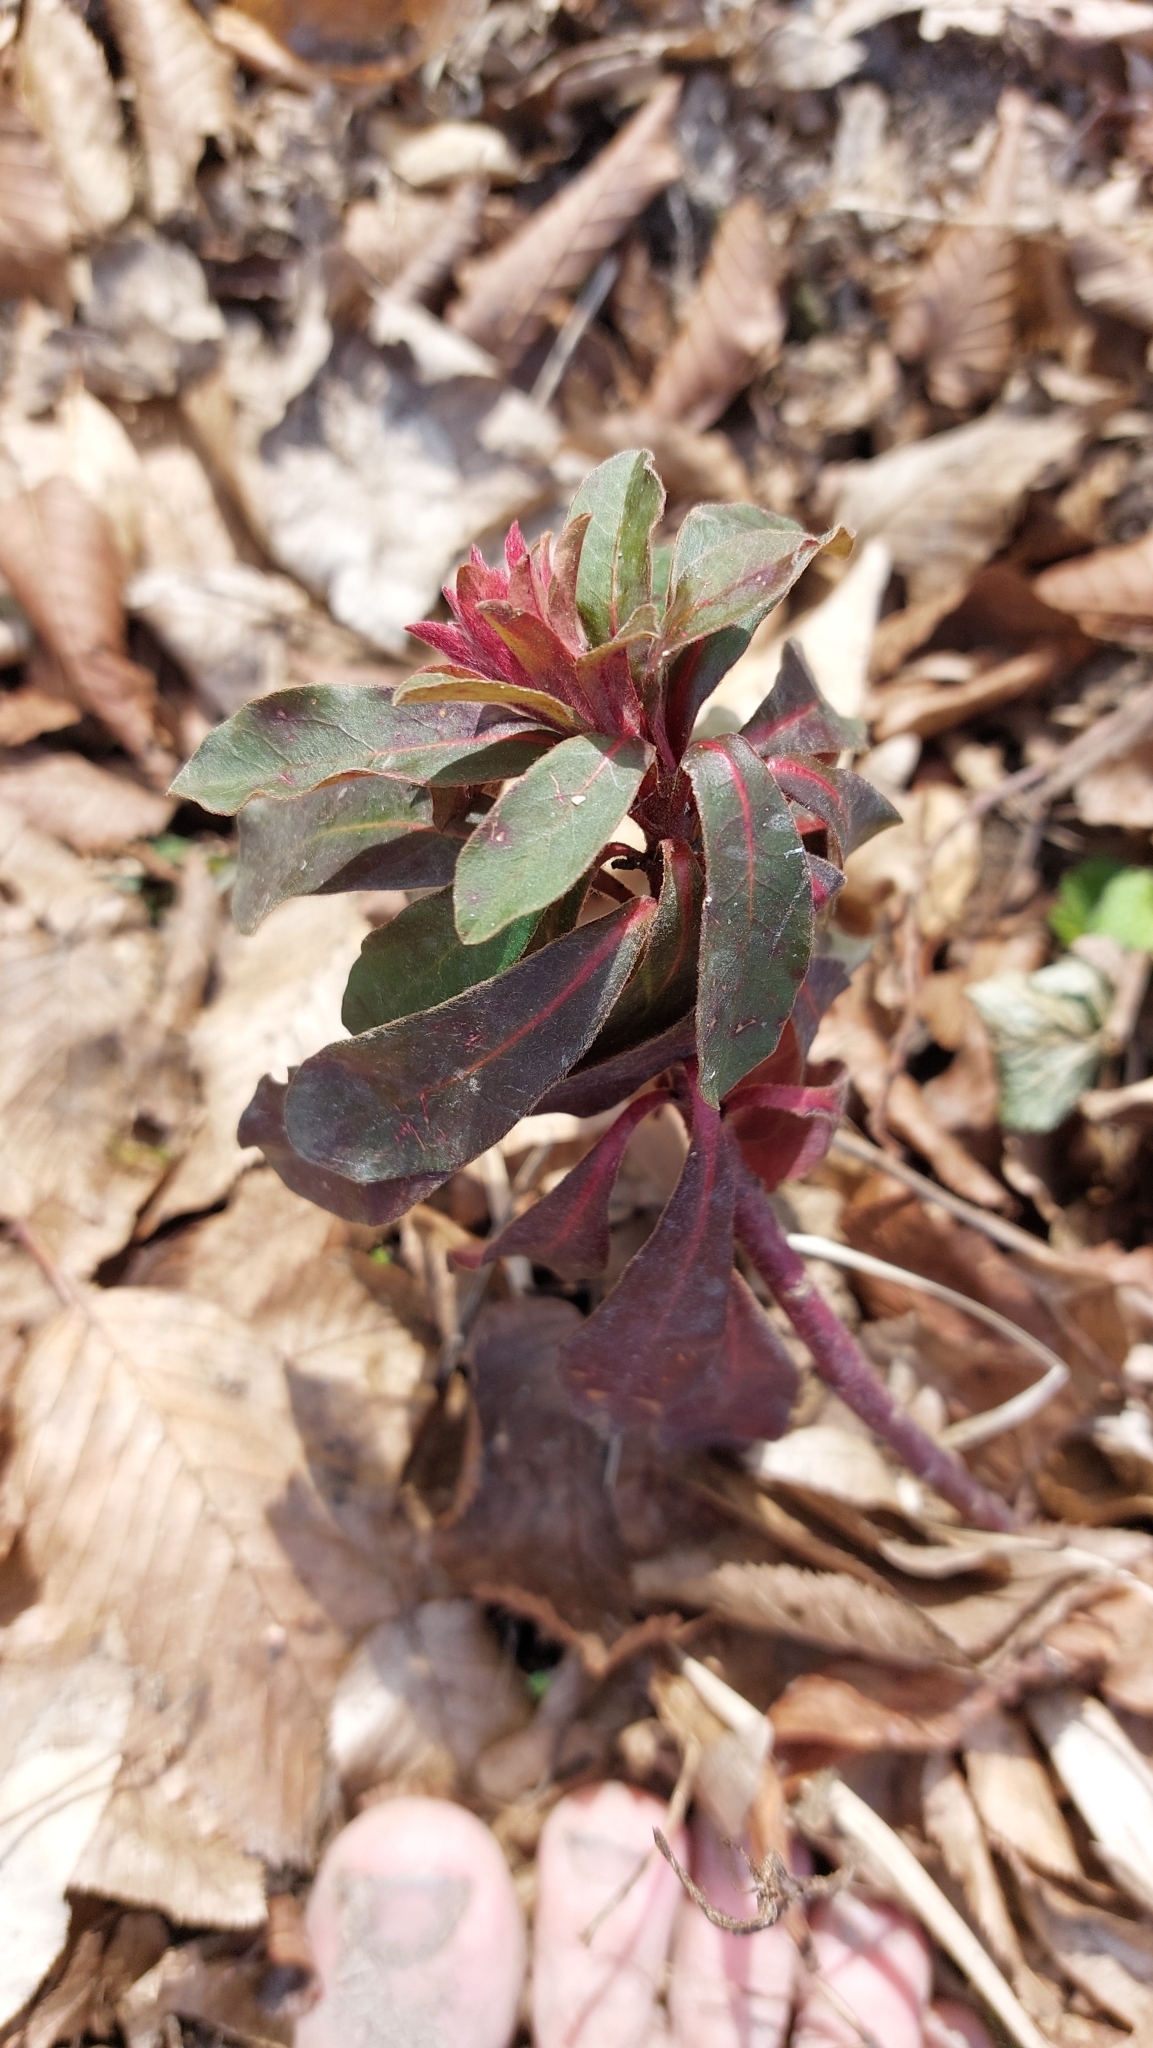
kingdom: Plantae
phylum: Tracheophyta
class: Magnoliopsida
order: Malpighiales
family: Euphorbiaceae
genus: Euphorbia
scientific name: Euphorbia amygdaloides
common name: Wood spurge
